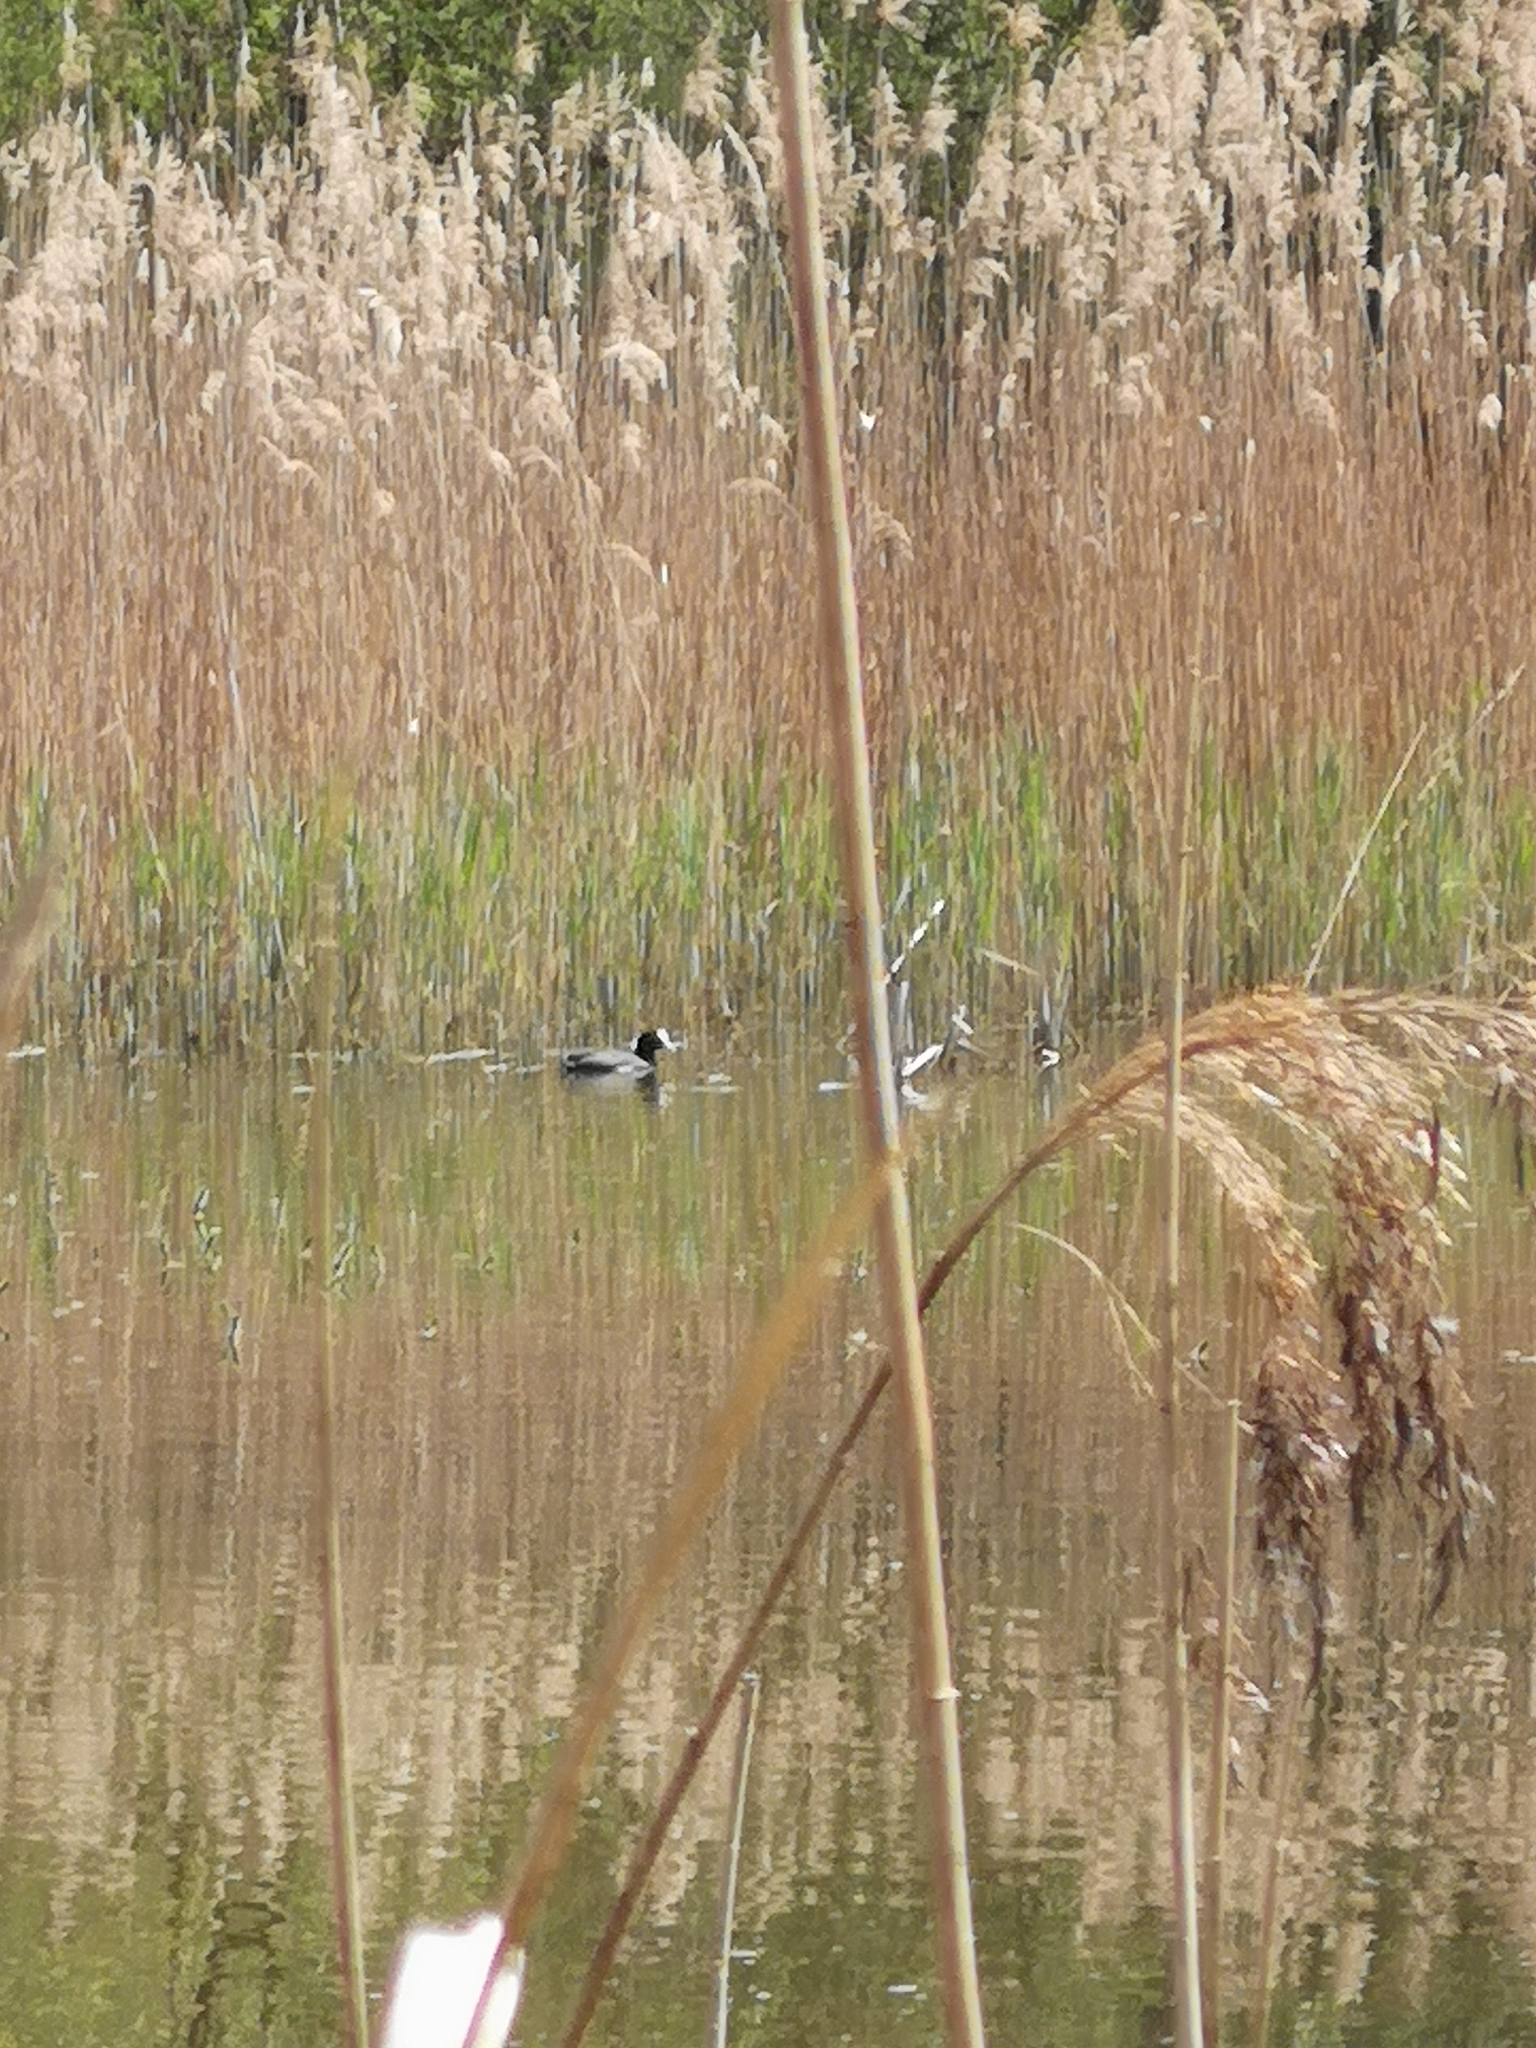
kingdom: Animalia
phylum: Chordata
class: Aves
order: Gruiformes
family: Rallidae
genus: Fulica
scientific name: Fulica atra
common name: Eurasian coot
